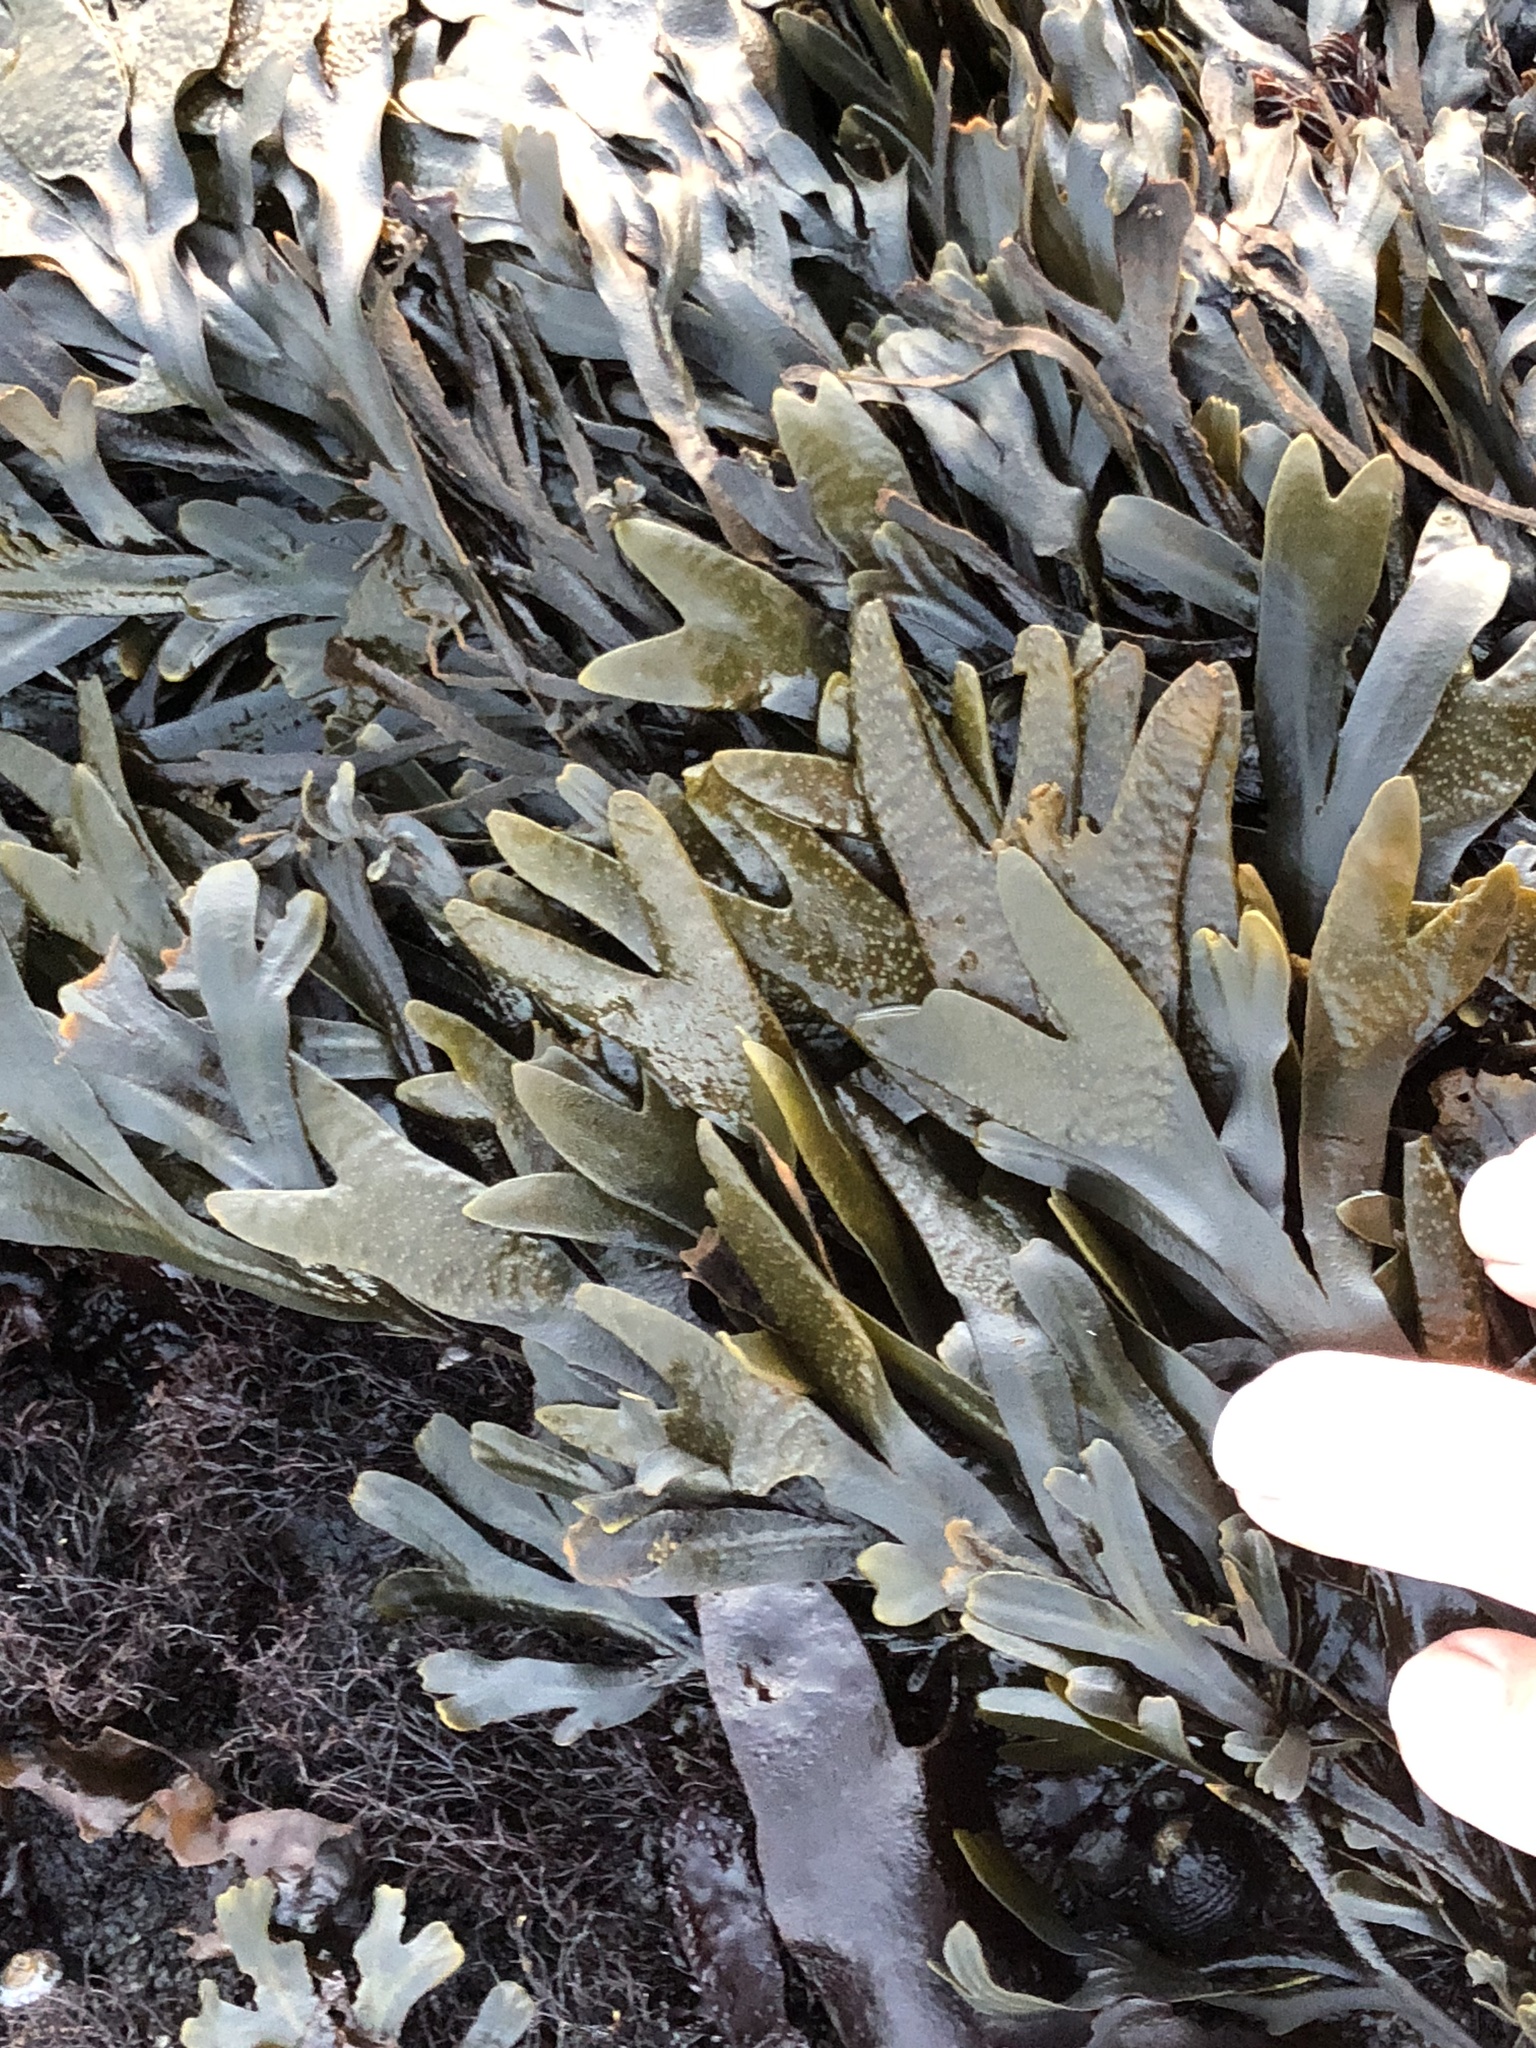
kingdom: Chromista
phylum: Ochrophyta
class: Phaeophyceae
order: Fucales
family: Fucaceae
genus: Fucus
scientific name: Fucus distichus
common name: Rockweed
